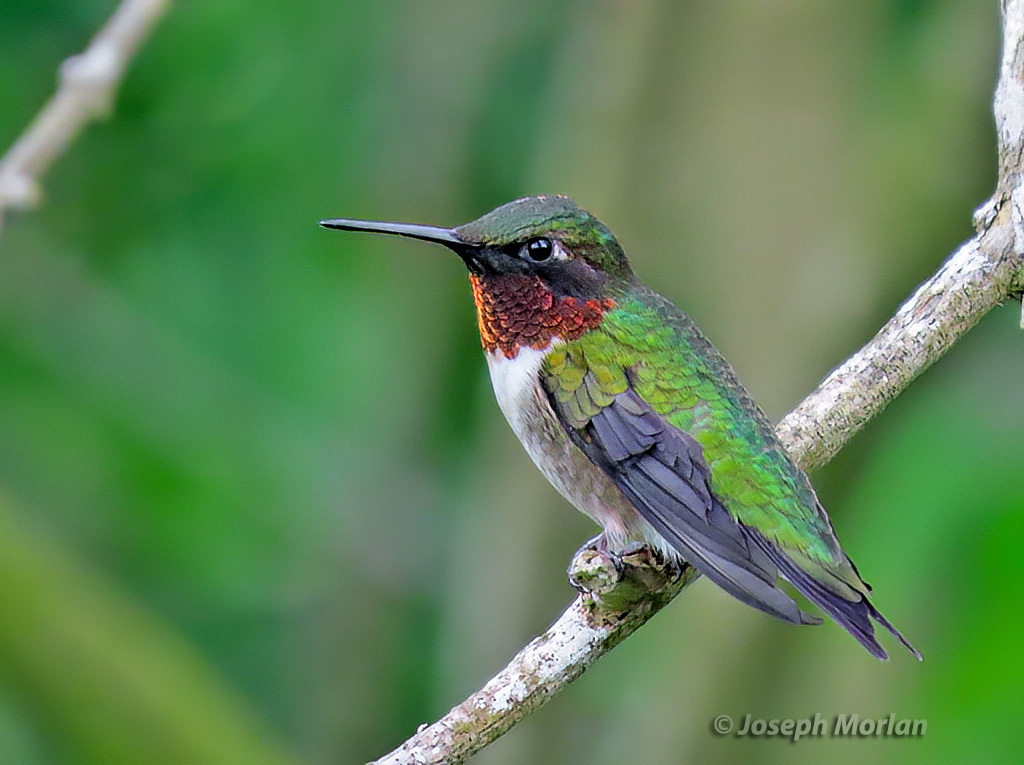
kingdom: Animalia
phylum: Chordata
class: Aves
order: Apodiformes
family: Trochilidae
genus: Archilochus
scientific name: Archilochus colubris
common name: Ruby-throated hummingbird
